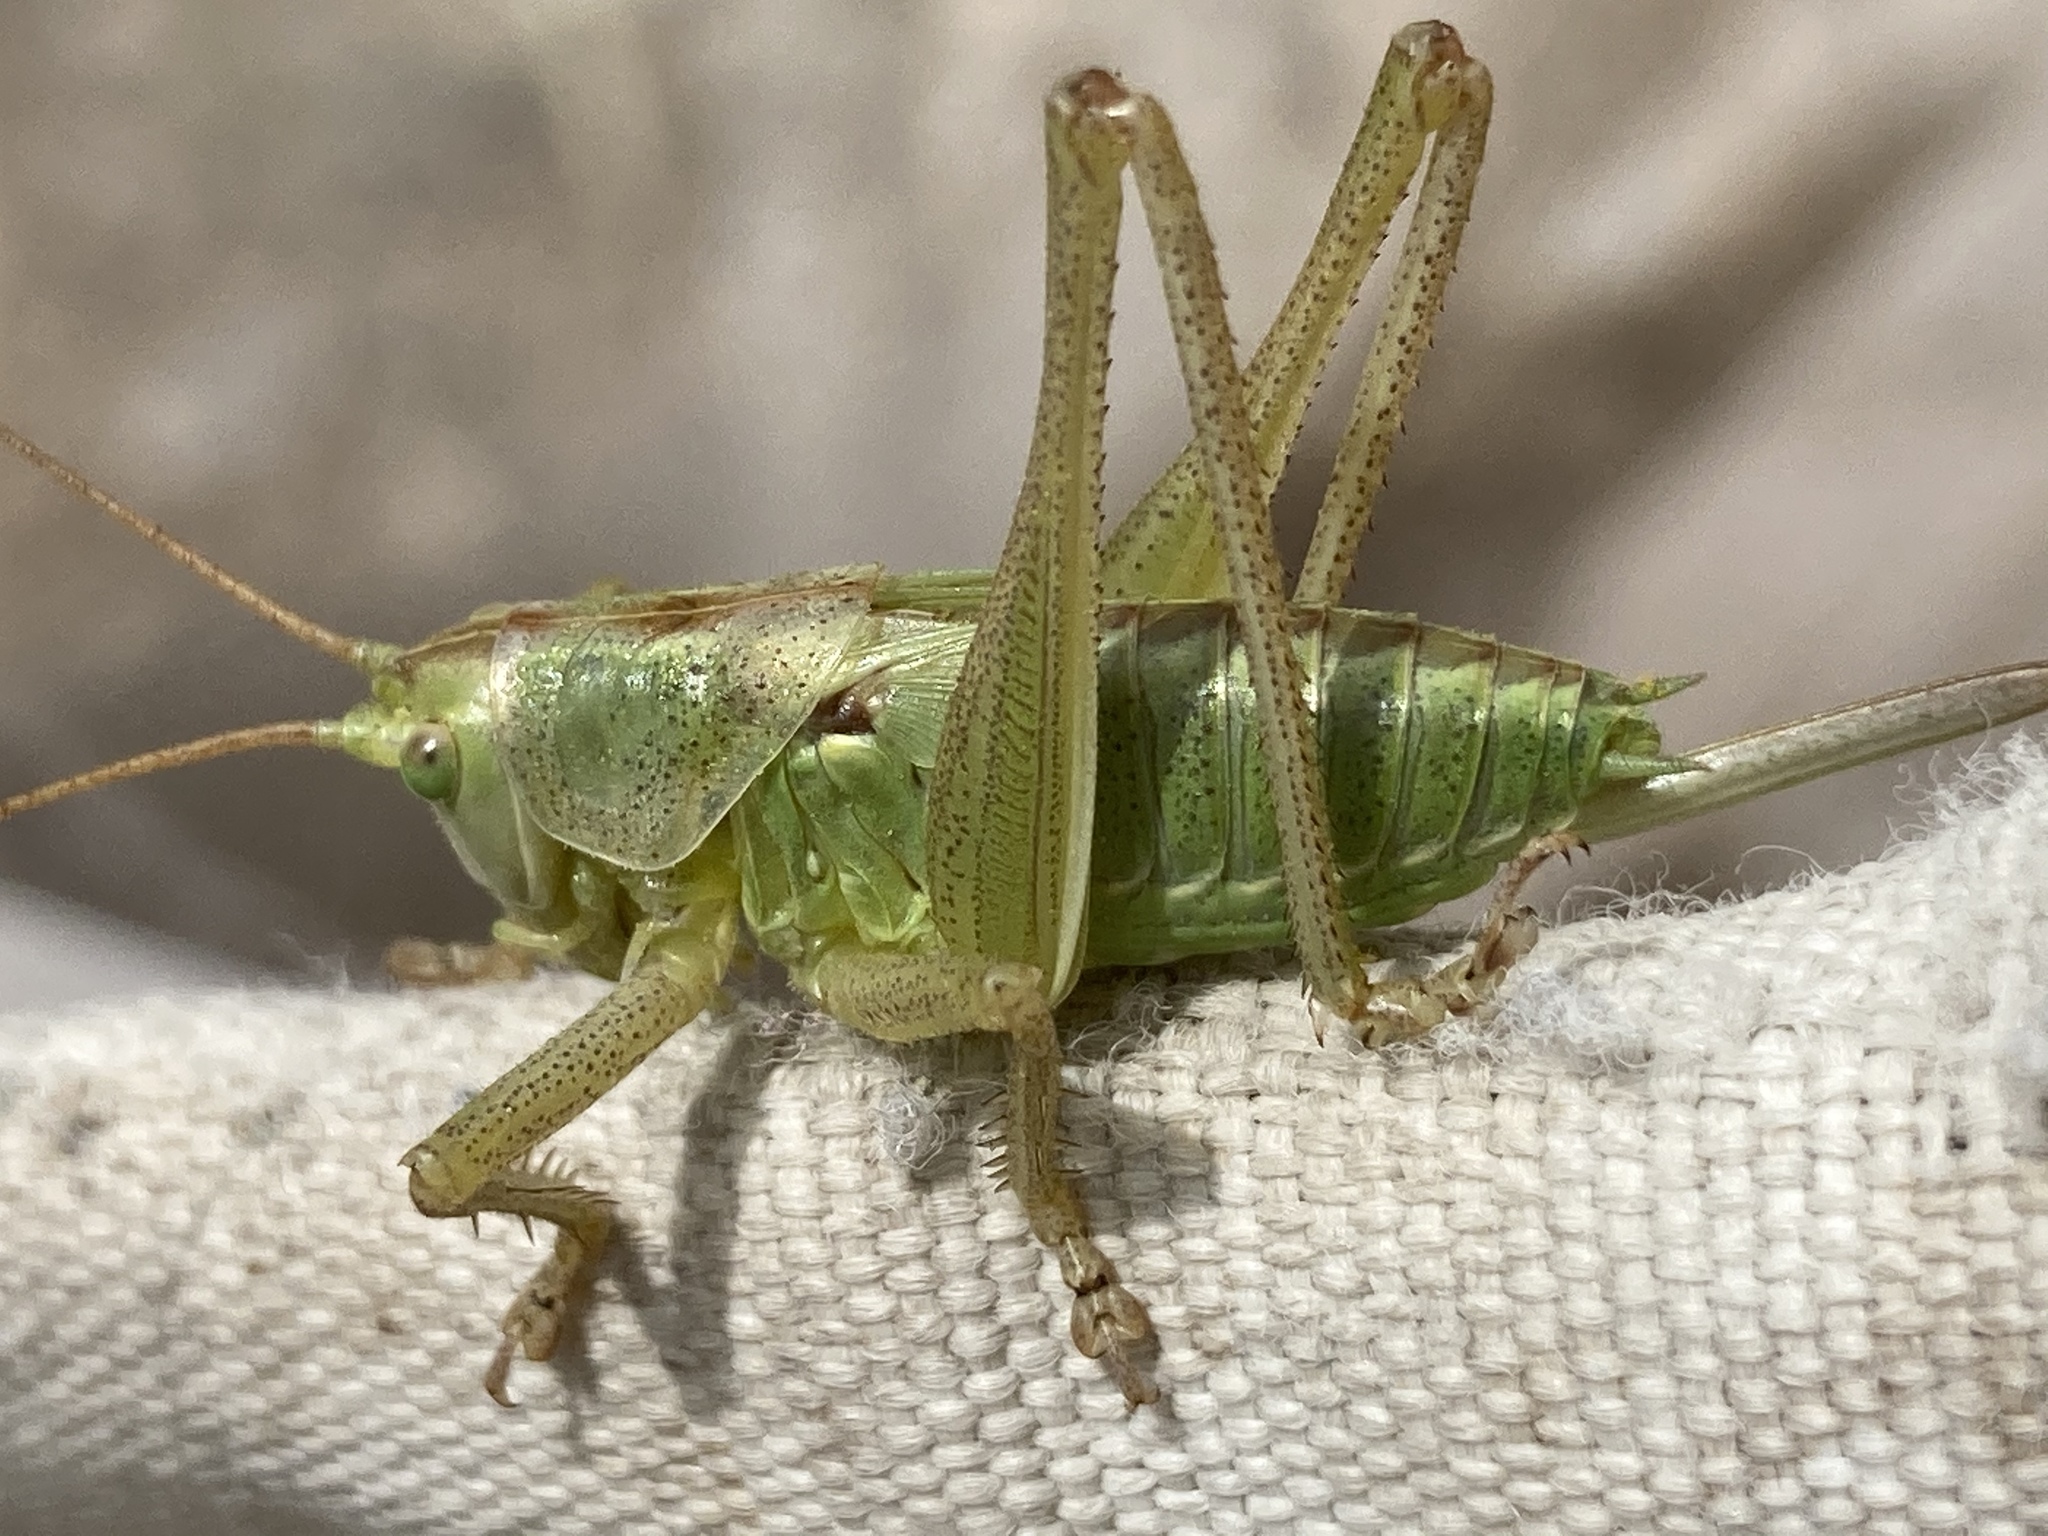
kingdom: Animalia
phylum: Arthropoda
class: Insecta
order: Orthoptera
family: Tettigoniidae
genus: Tettigonia
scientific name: Tettigonia viridissima
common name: Great green bush-cricket
